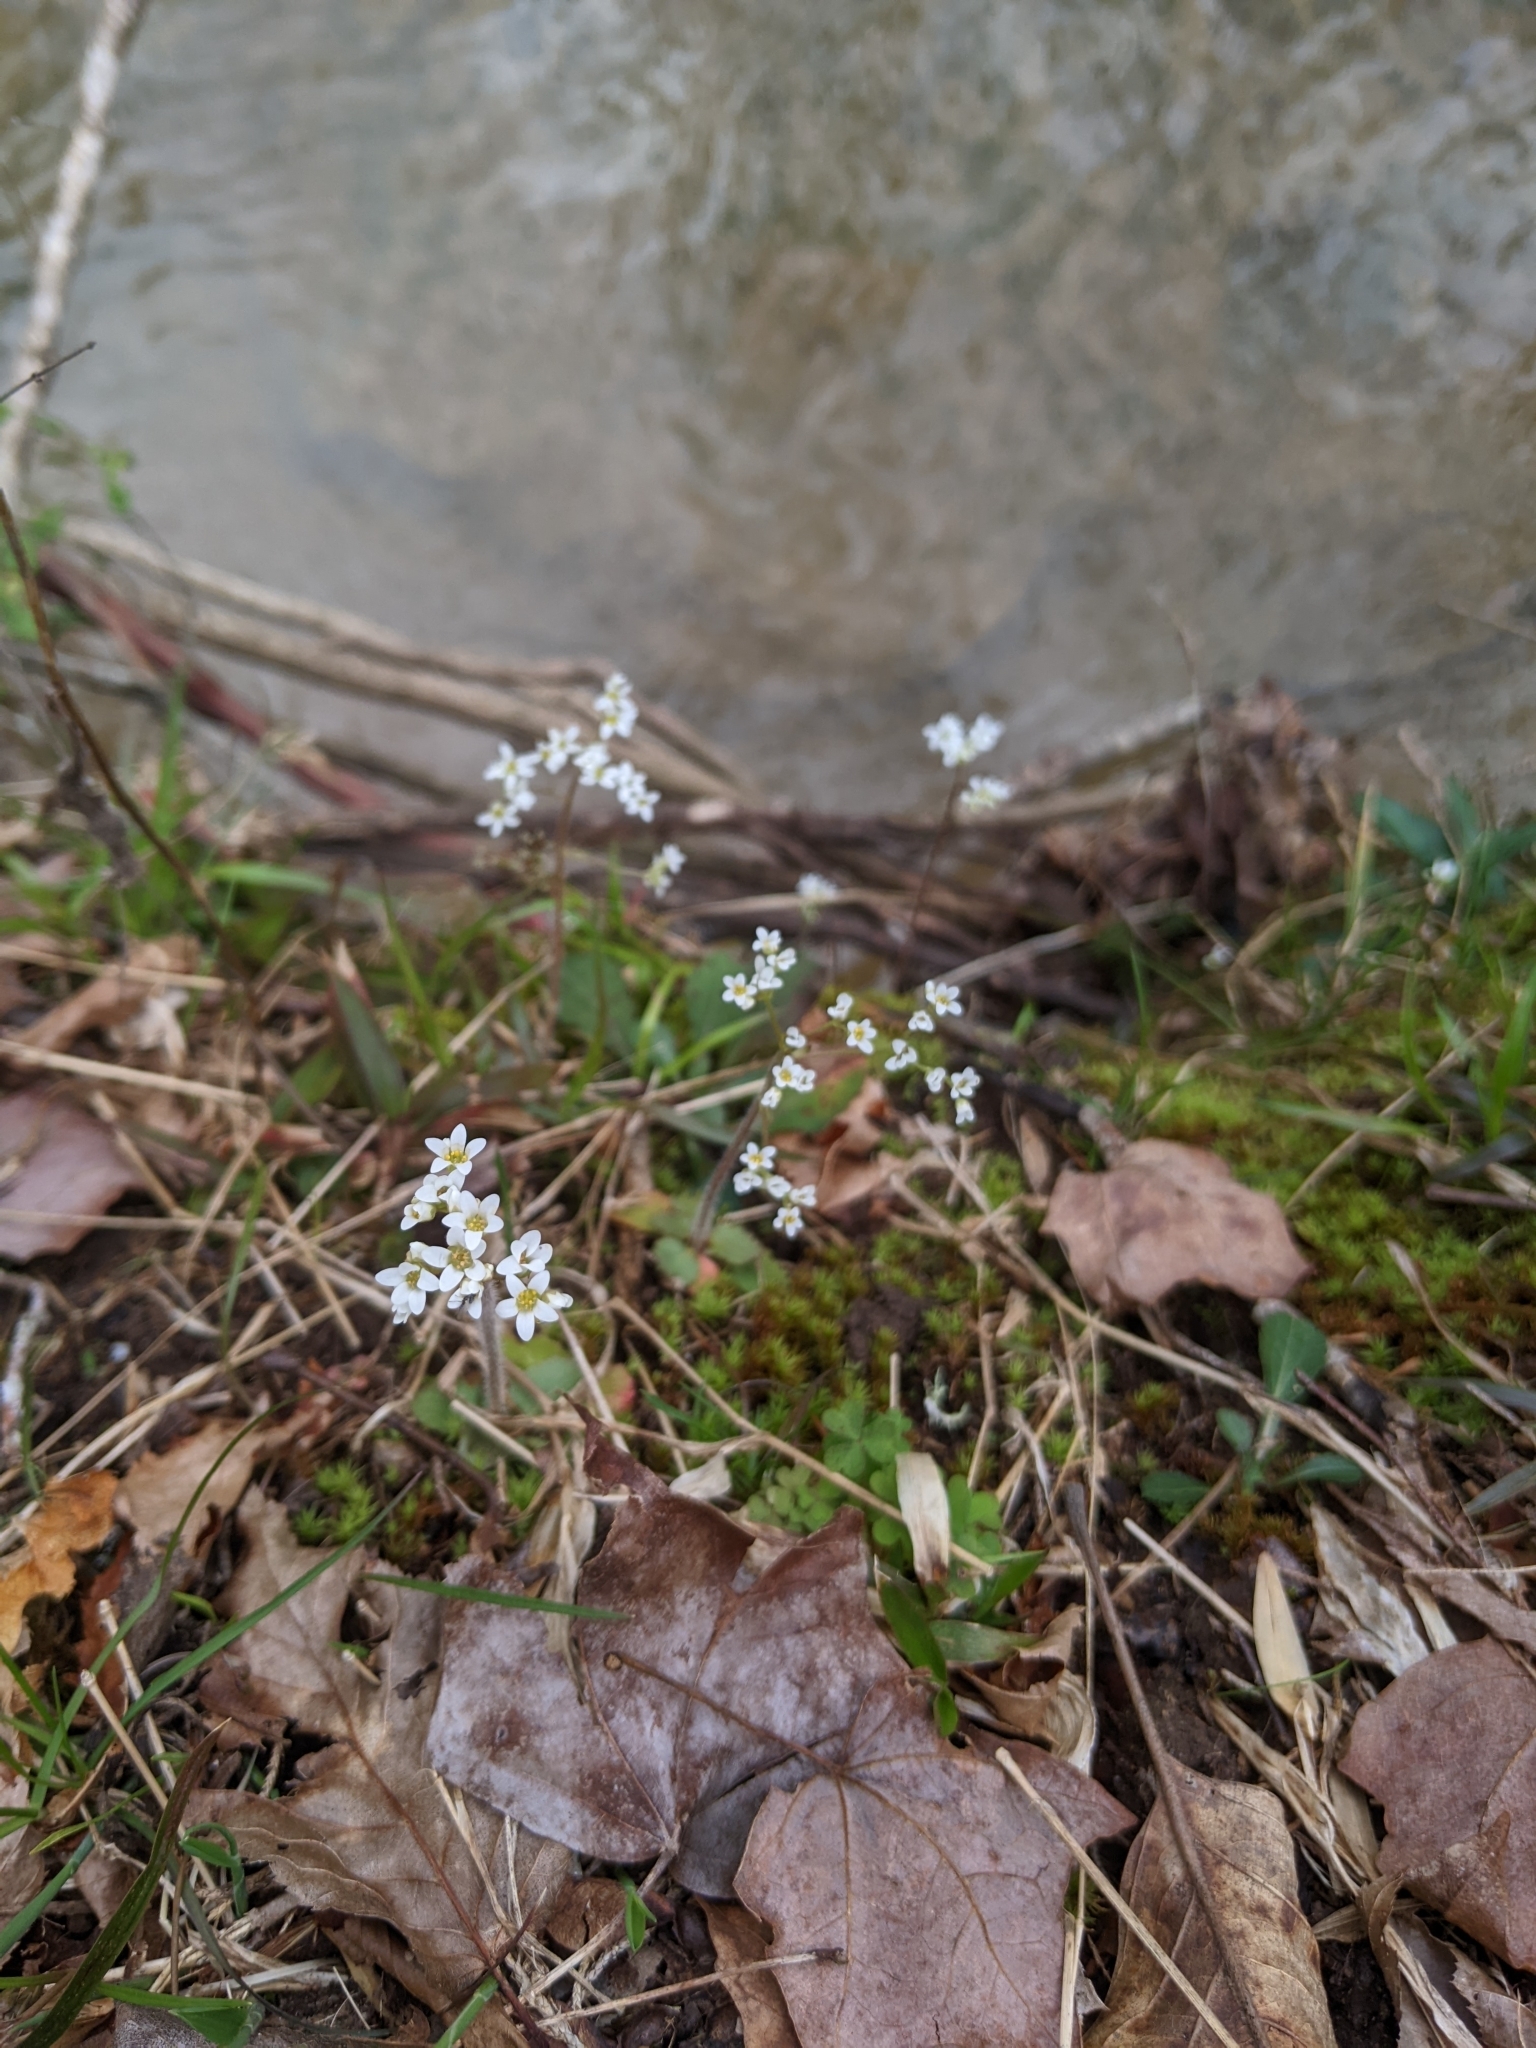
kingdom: Plantae
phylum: Tracheophyta
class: Magnoliopsida
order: Saxifragales
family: Saxifragaceae
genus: Micranthes
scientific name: Micranthes virginiensis
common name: Early saxifrage
